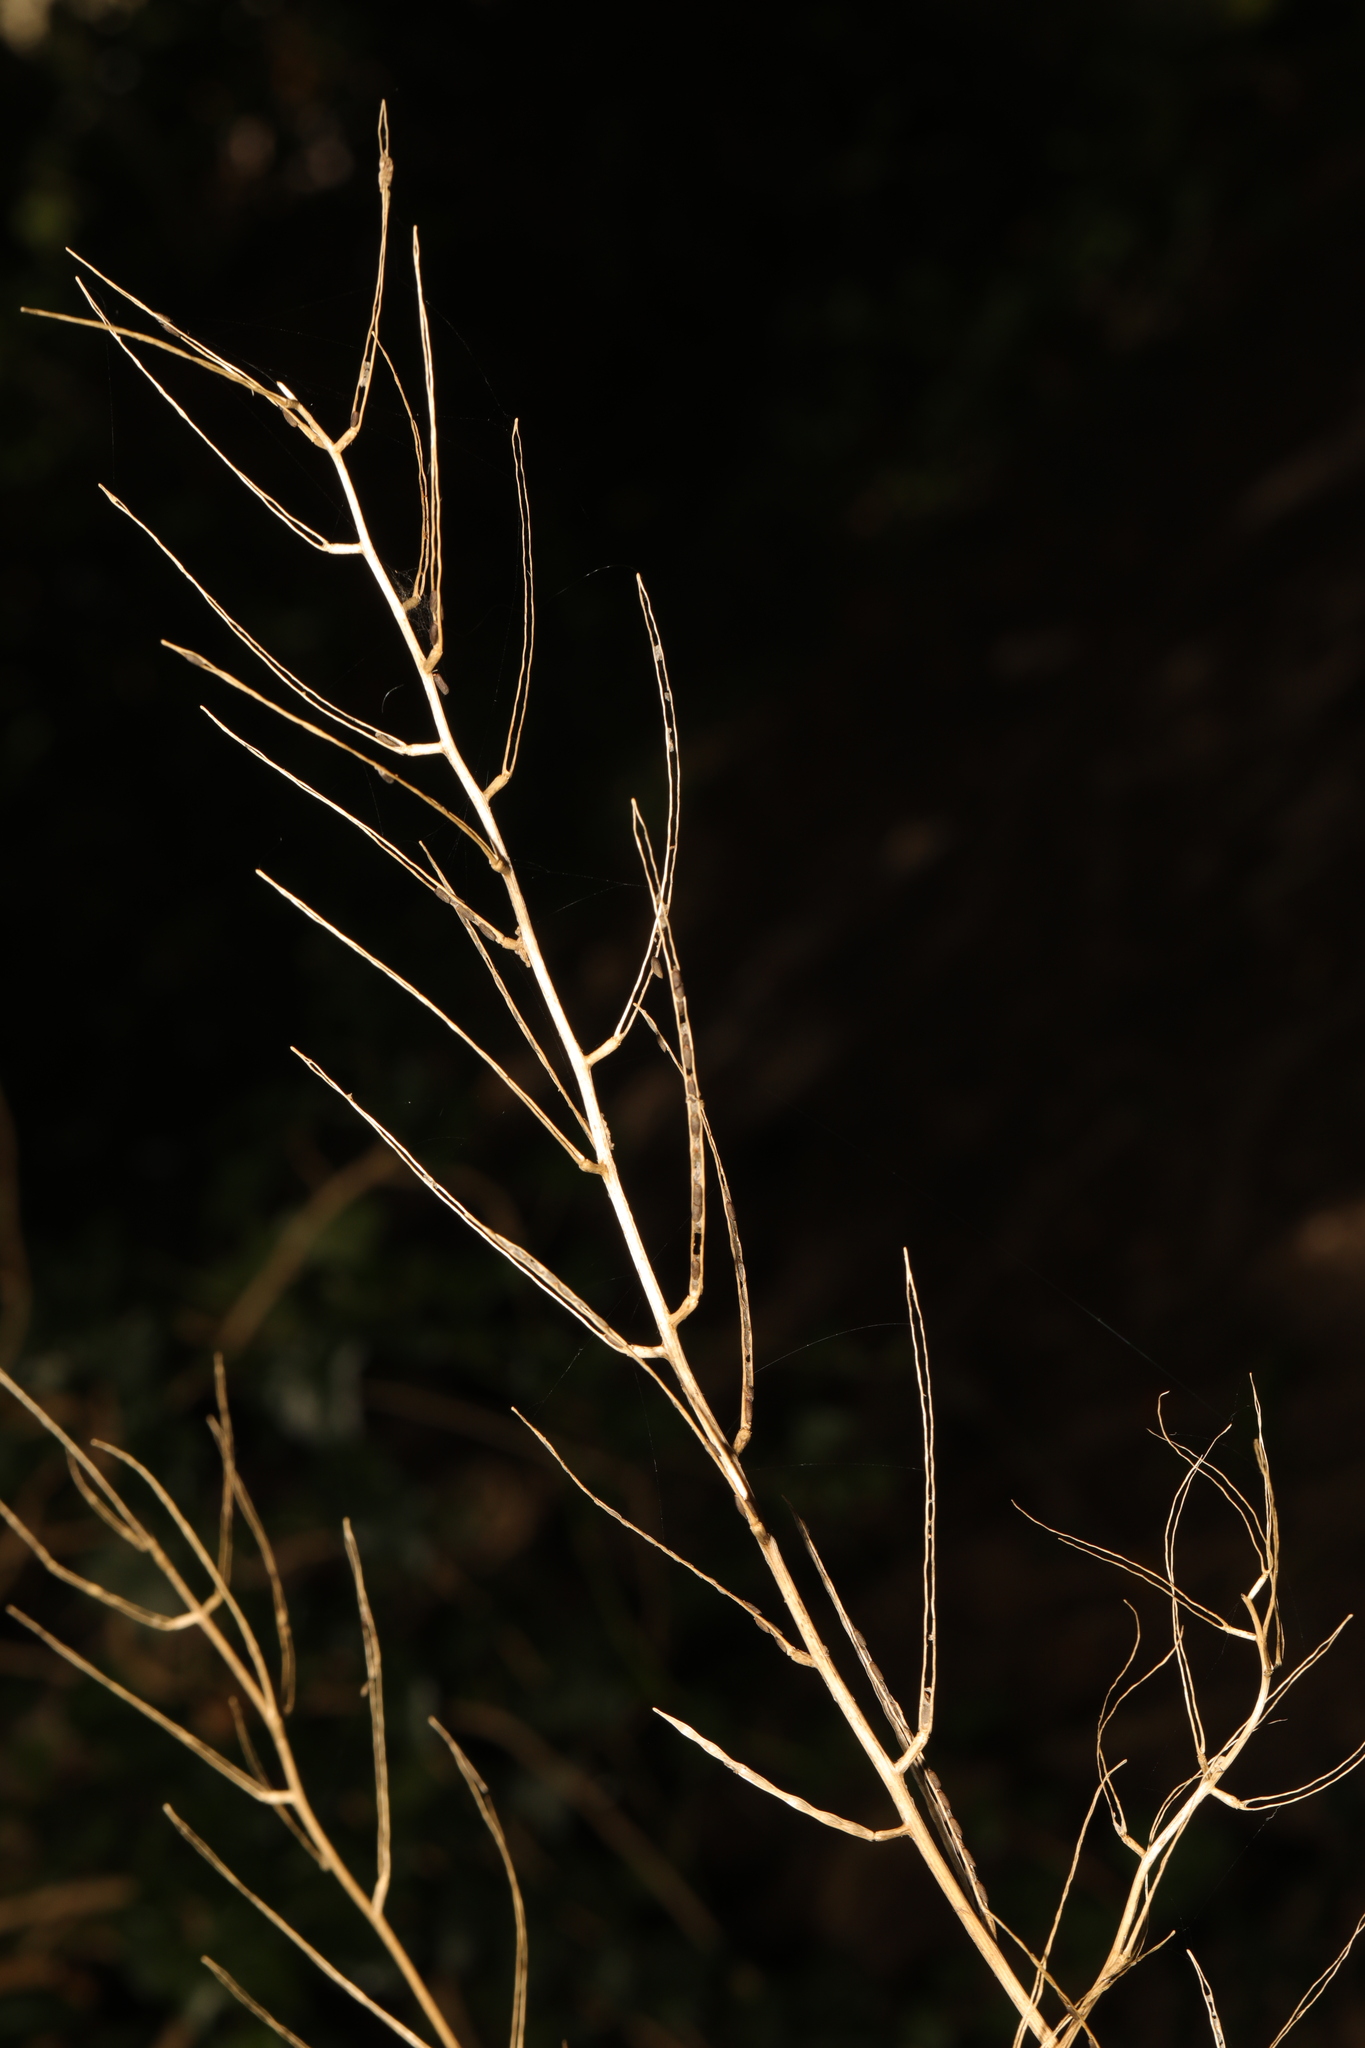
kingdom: Plantae
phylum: Tracheophyta
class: Magnoliopsida
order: Brassicales
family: Brassicaceae
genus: Alliaria
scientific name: Alliaria petiolata
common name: Garlic mustard
